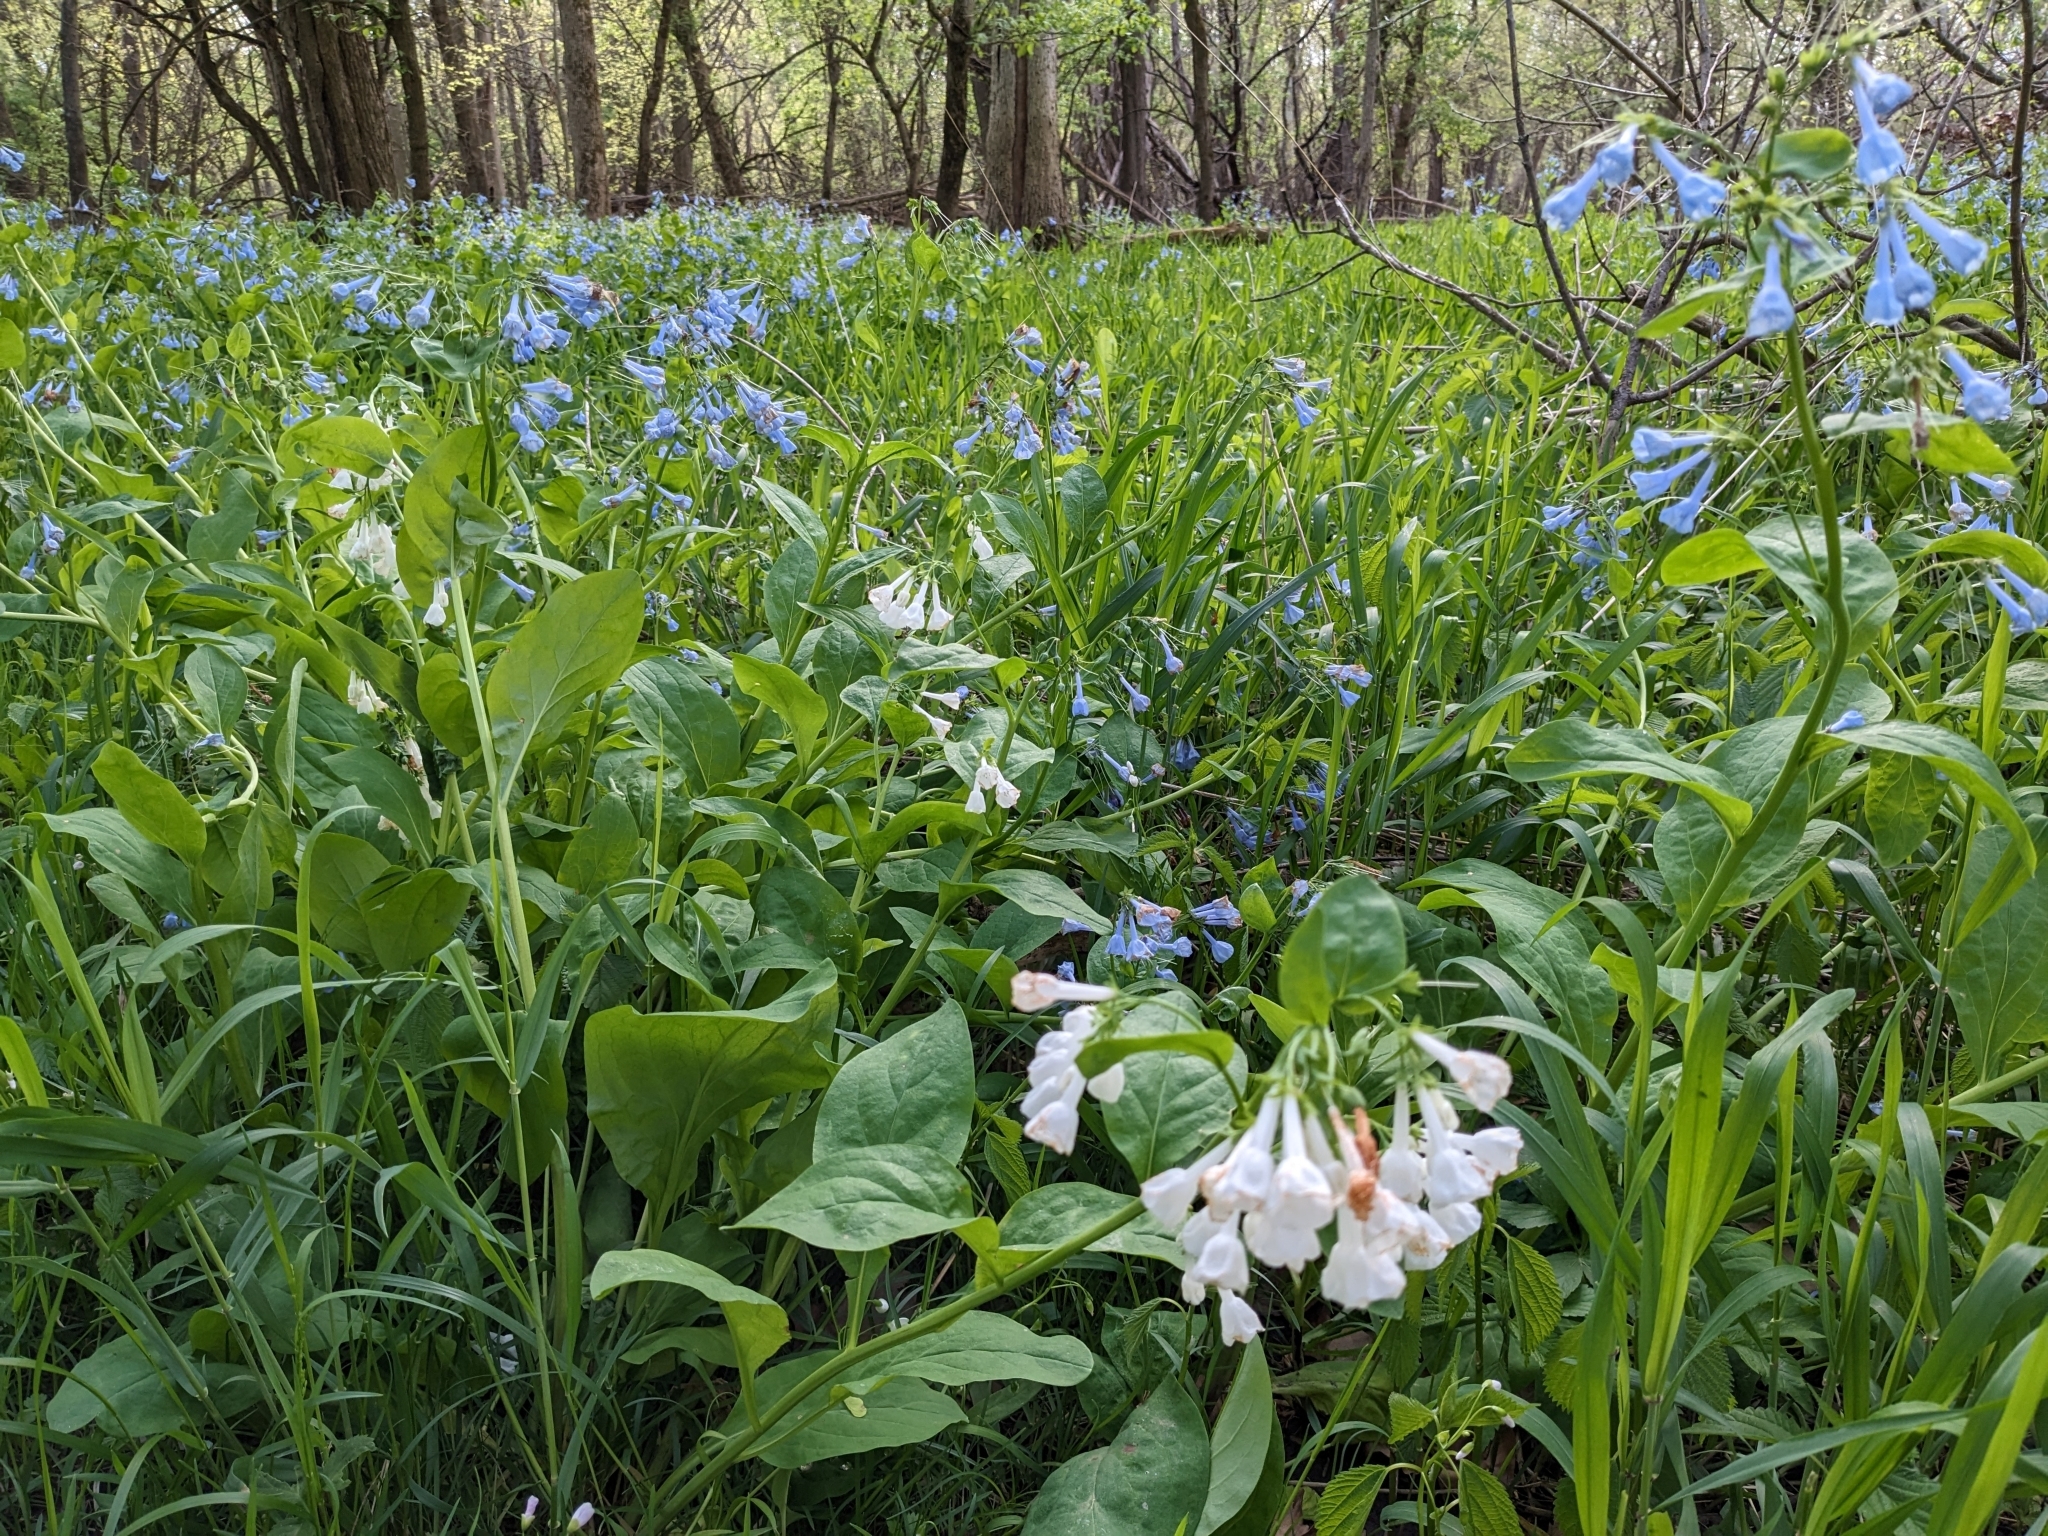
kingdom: Plantae
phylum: Tracheophyta
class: Magnoliopsida
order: Boraginales
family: Boraginaceae
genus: Mertensia
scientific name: Mertensia virginica
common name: Virginia bluebells
